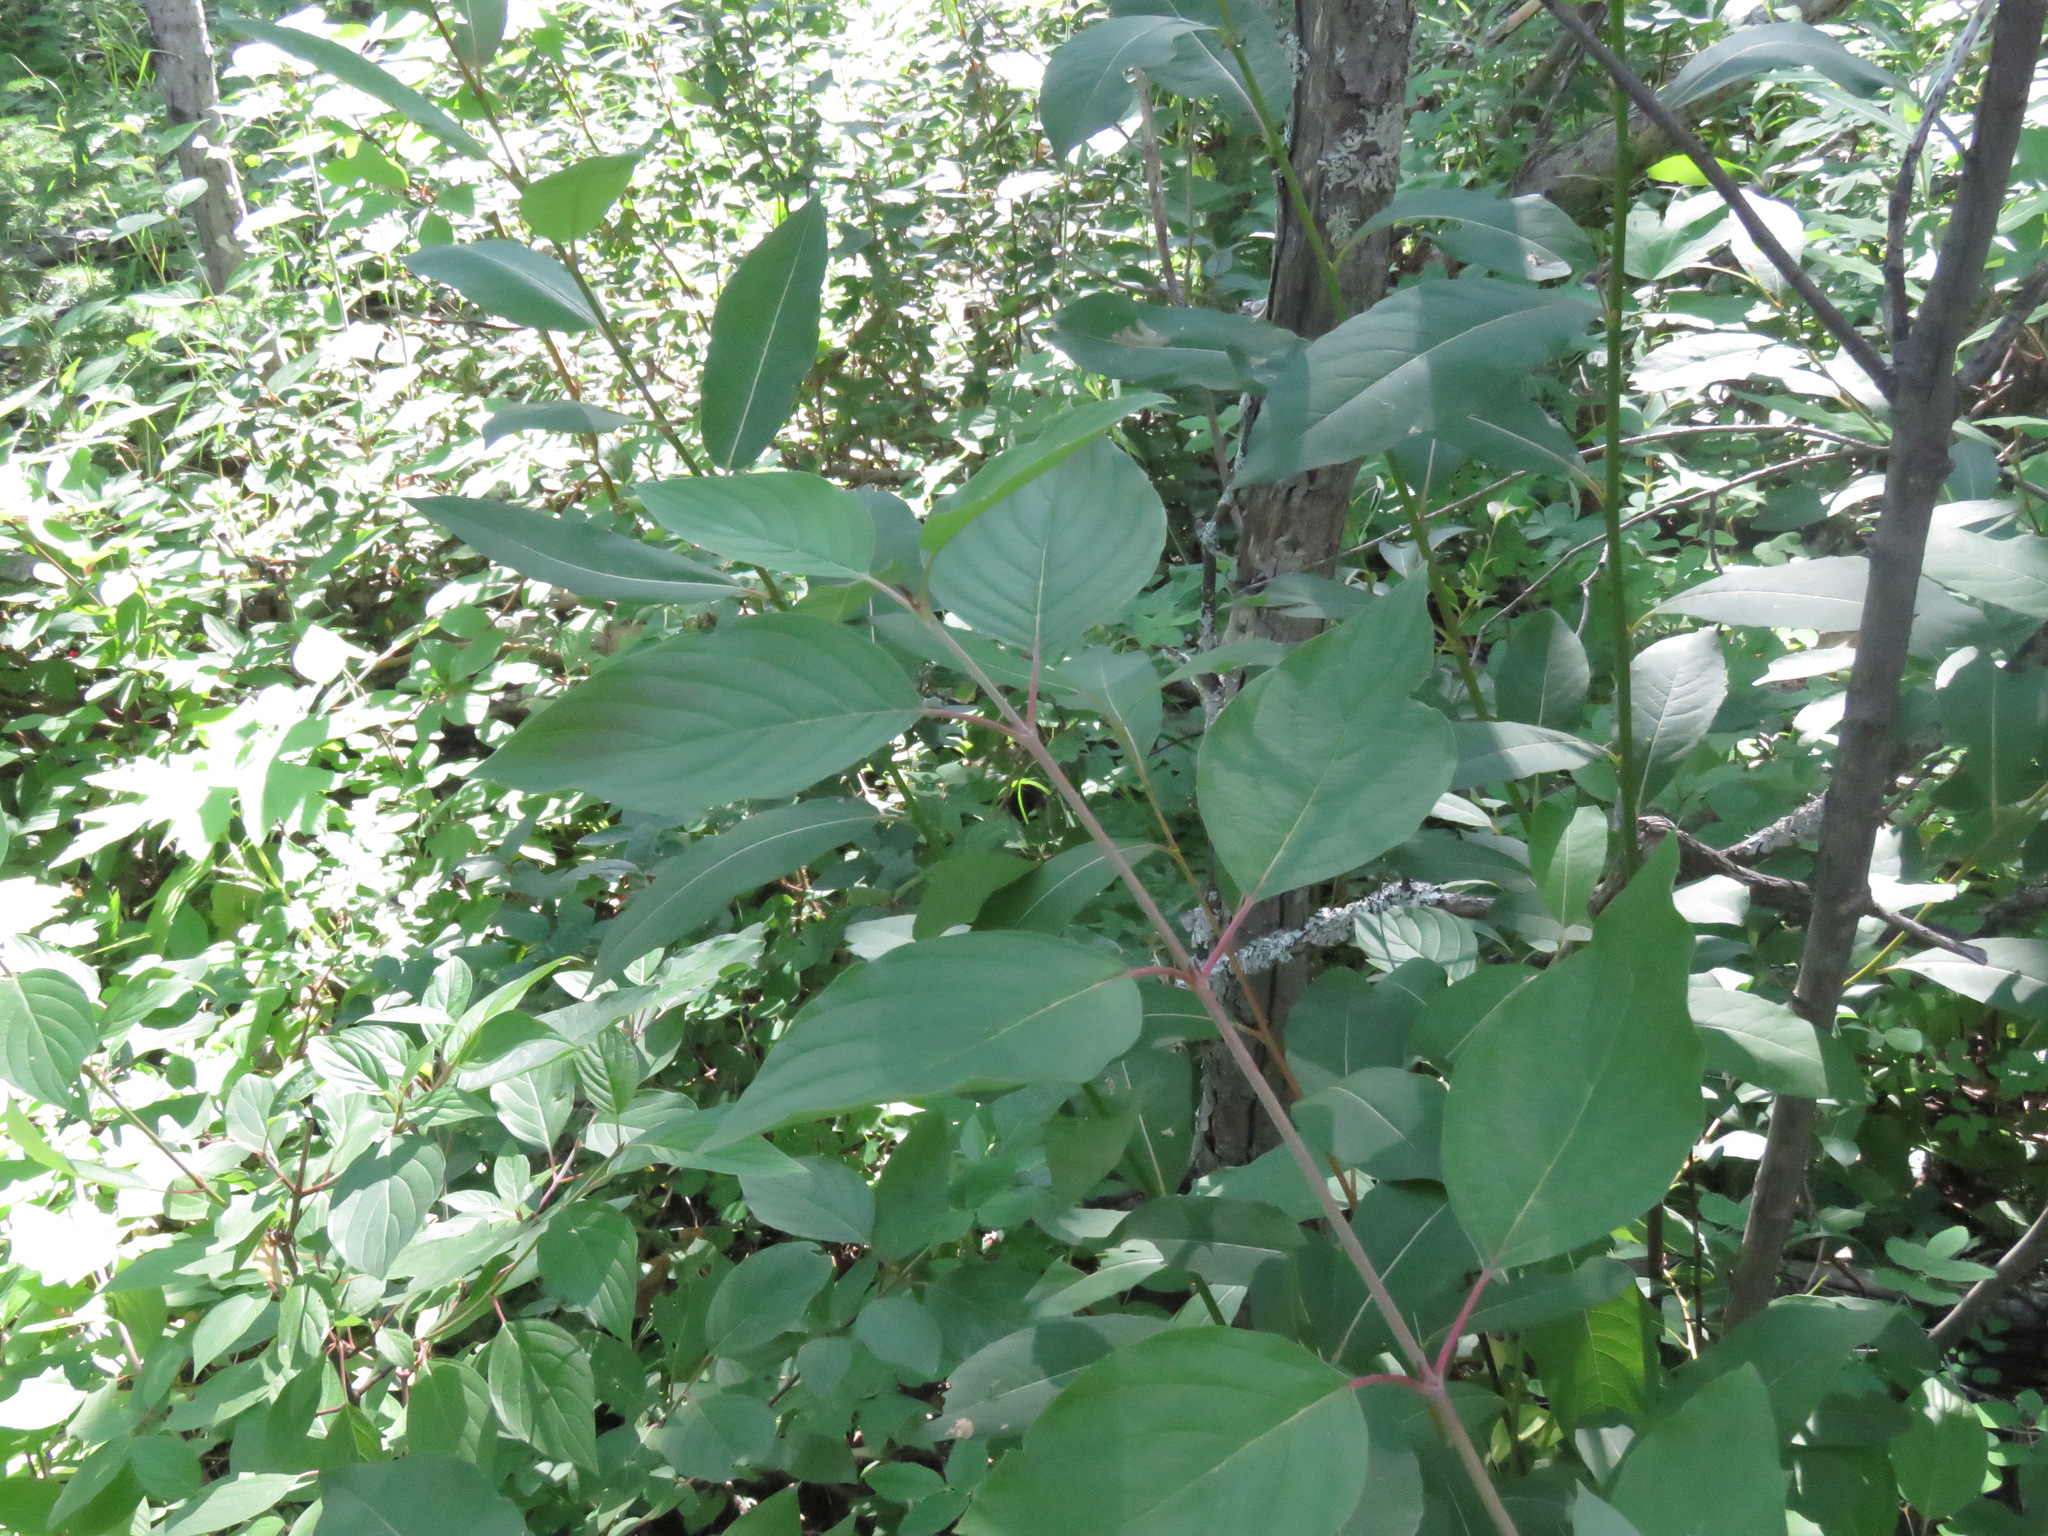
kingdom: Plantae
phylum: Tracheophyta
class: Magnoliopsida
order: Cornales
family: Cornaceae
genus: Cornus
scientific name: Cornus sericea
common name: Red-osier dogwood
